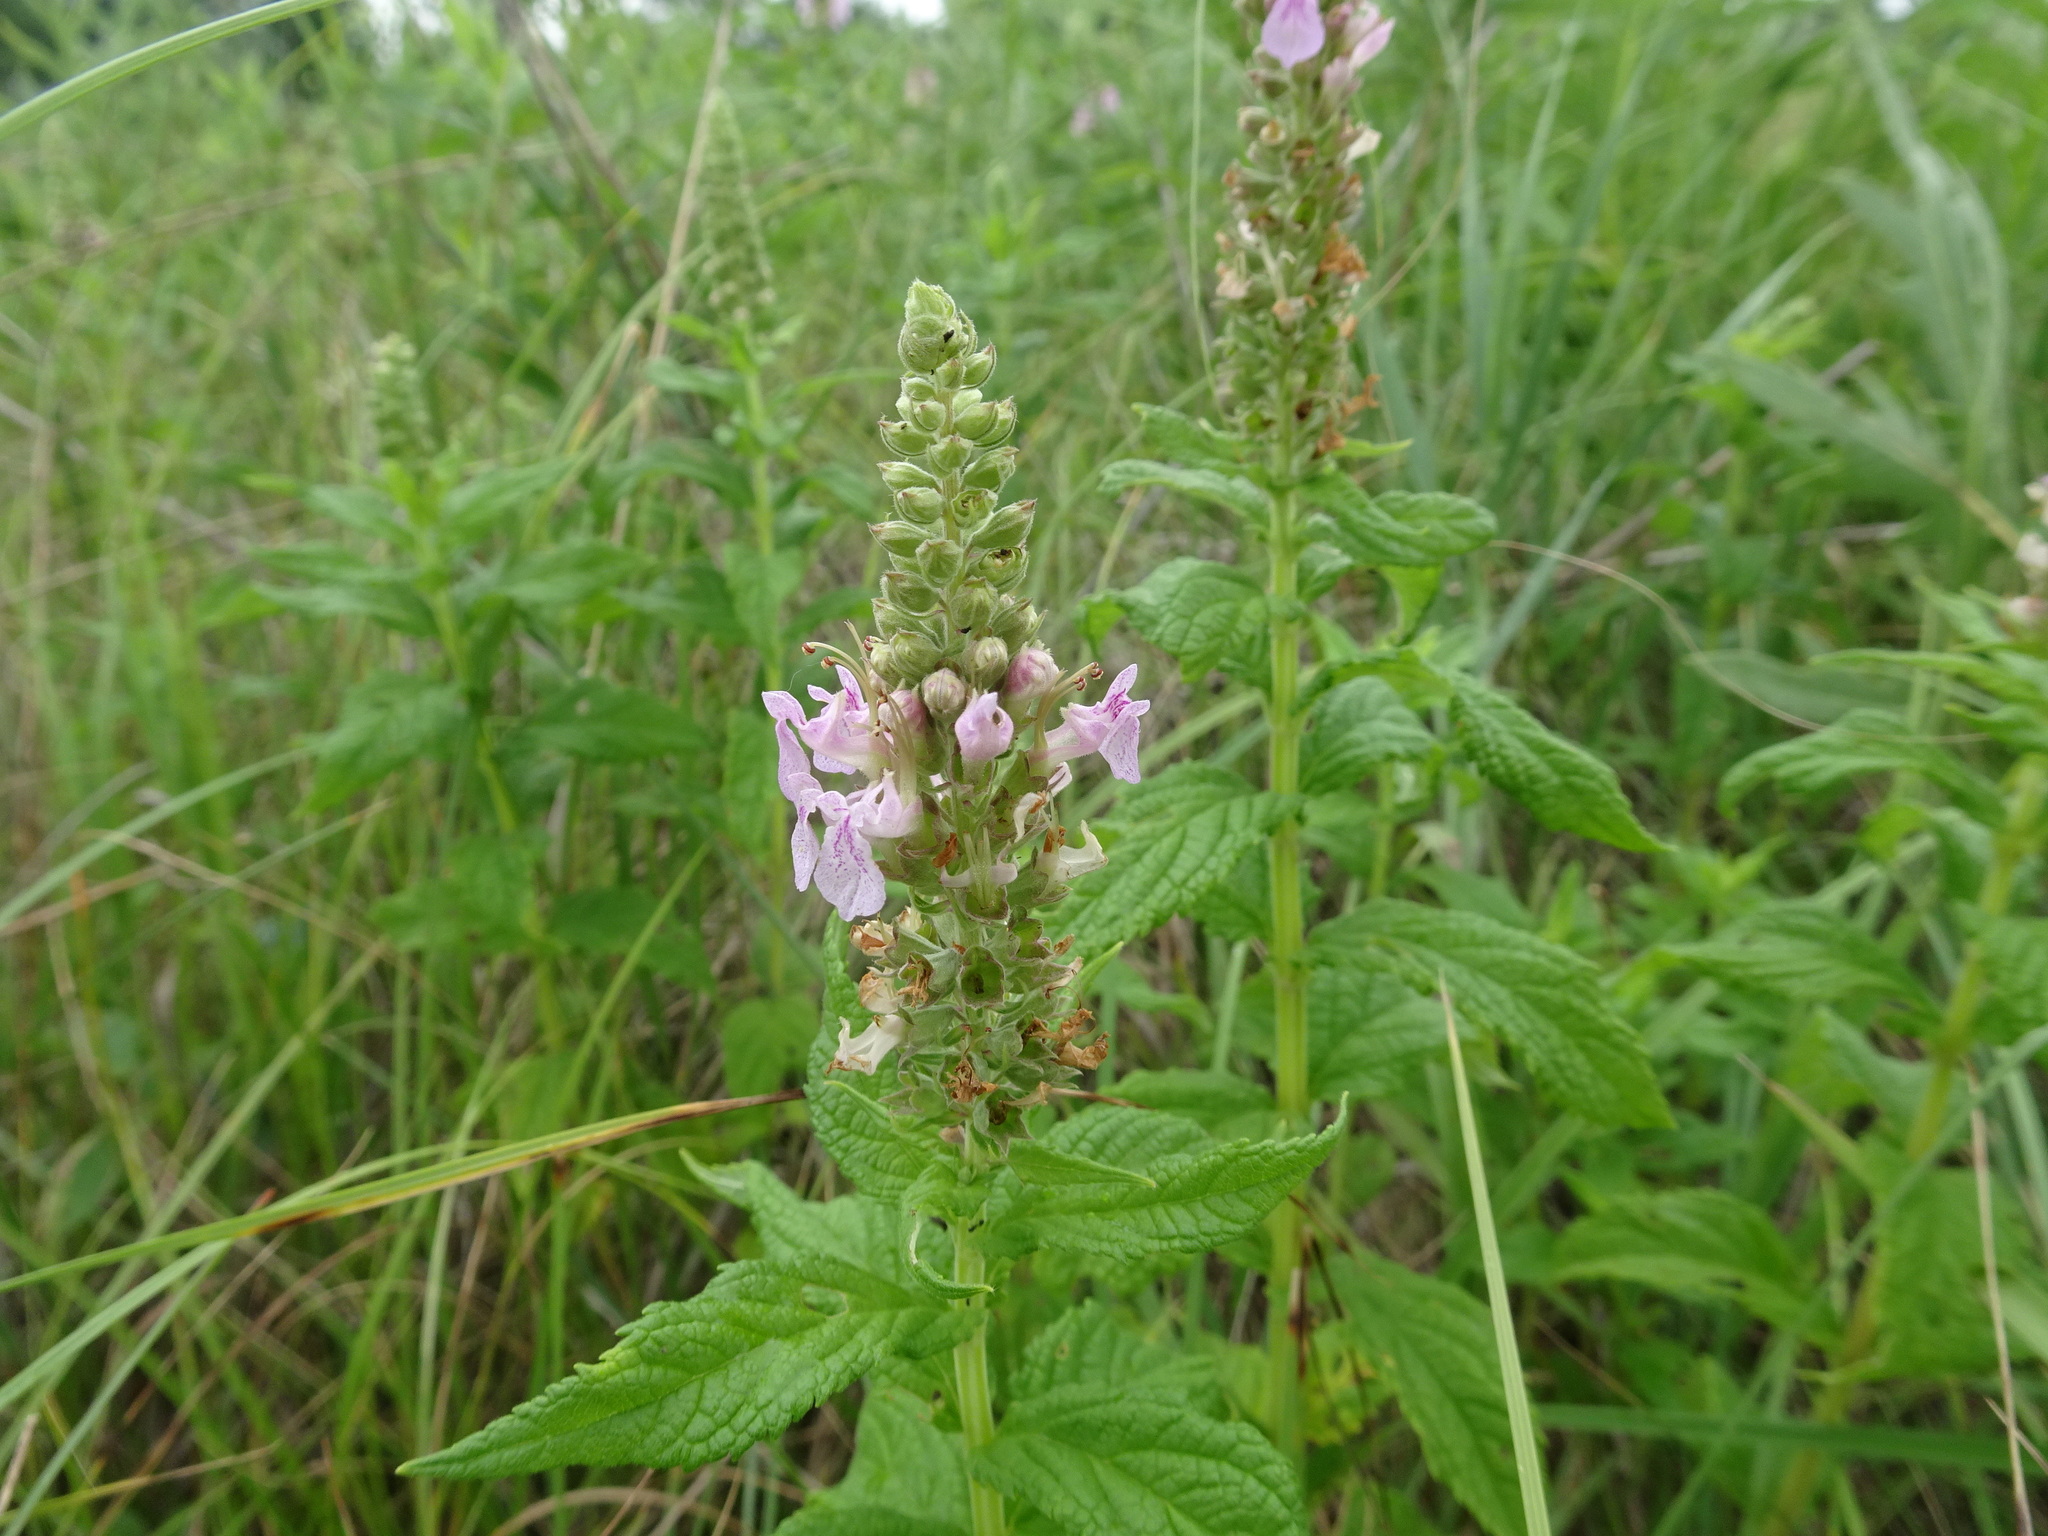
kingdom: Plantae
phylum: Tracheophyta
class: Magnoliopsida
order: Lamiales
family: Lamiaceae
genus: Teucrium
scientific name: Teucrium canadense
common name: American germander
